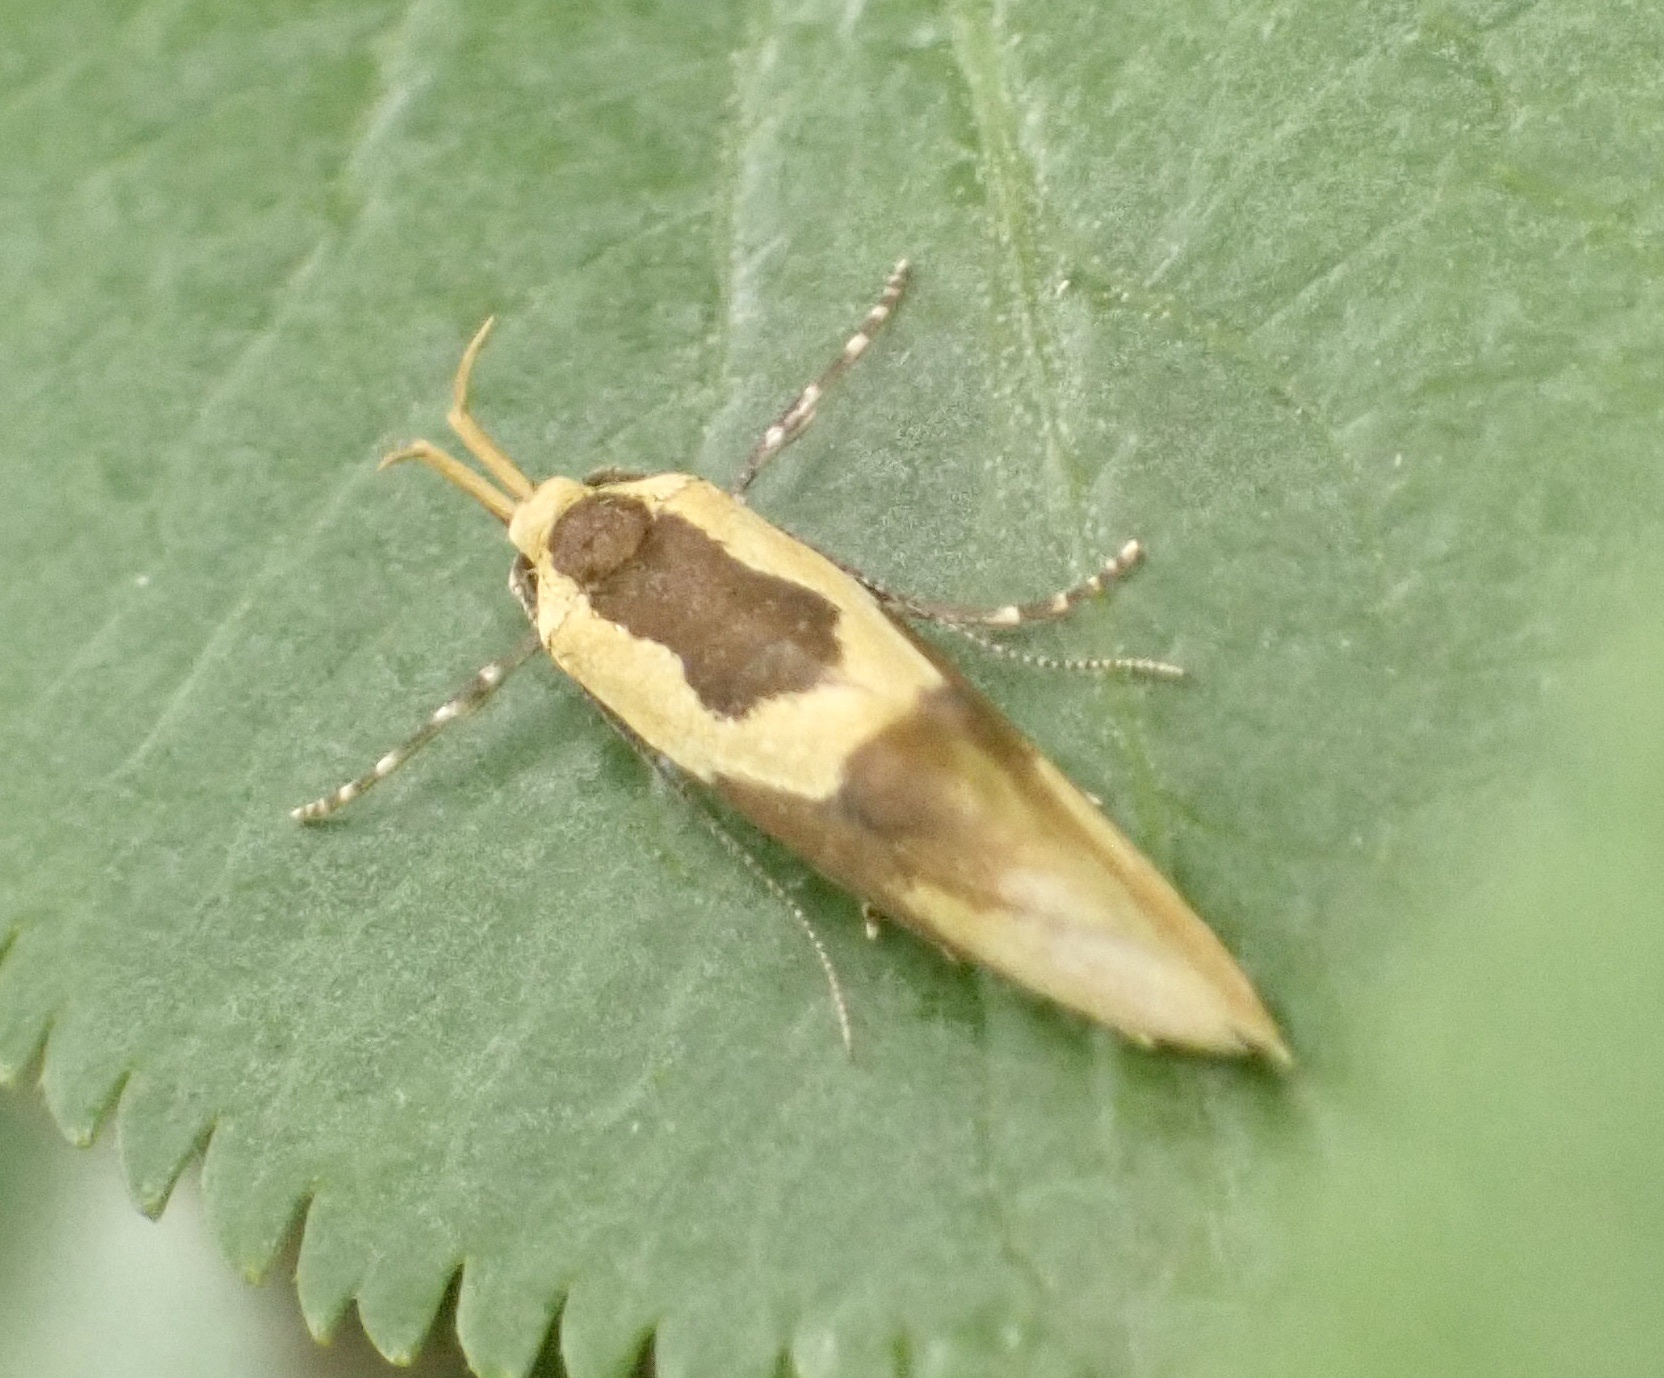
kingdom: Animalia
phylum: Arthropoda
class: Insecta
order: Lepidoptera
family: Oecophoridae
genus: Harpella
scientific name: Harpella forficella
